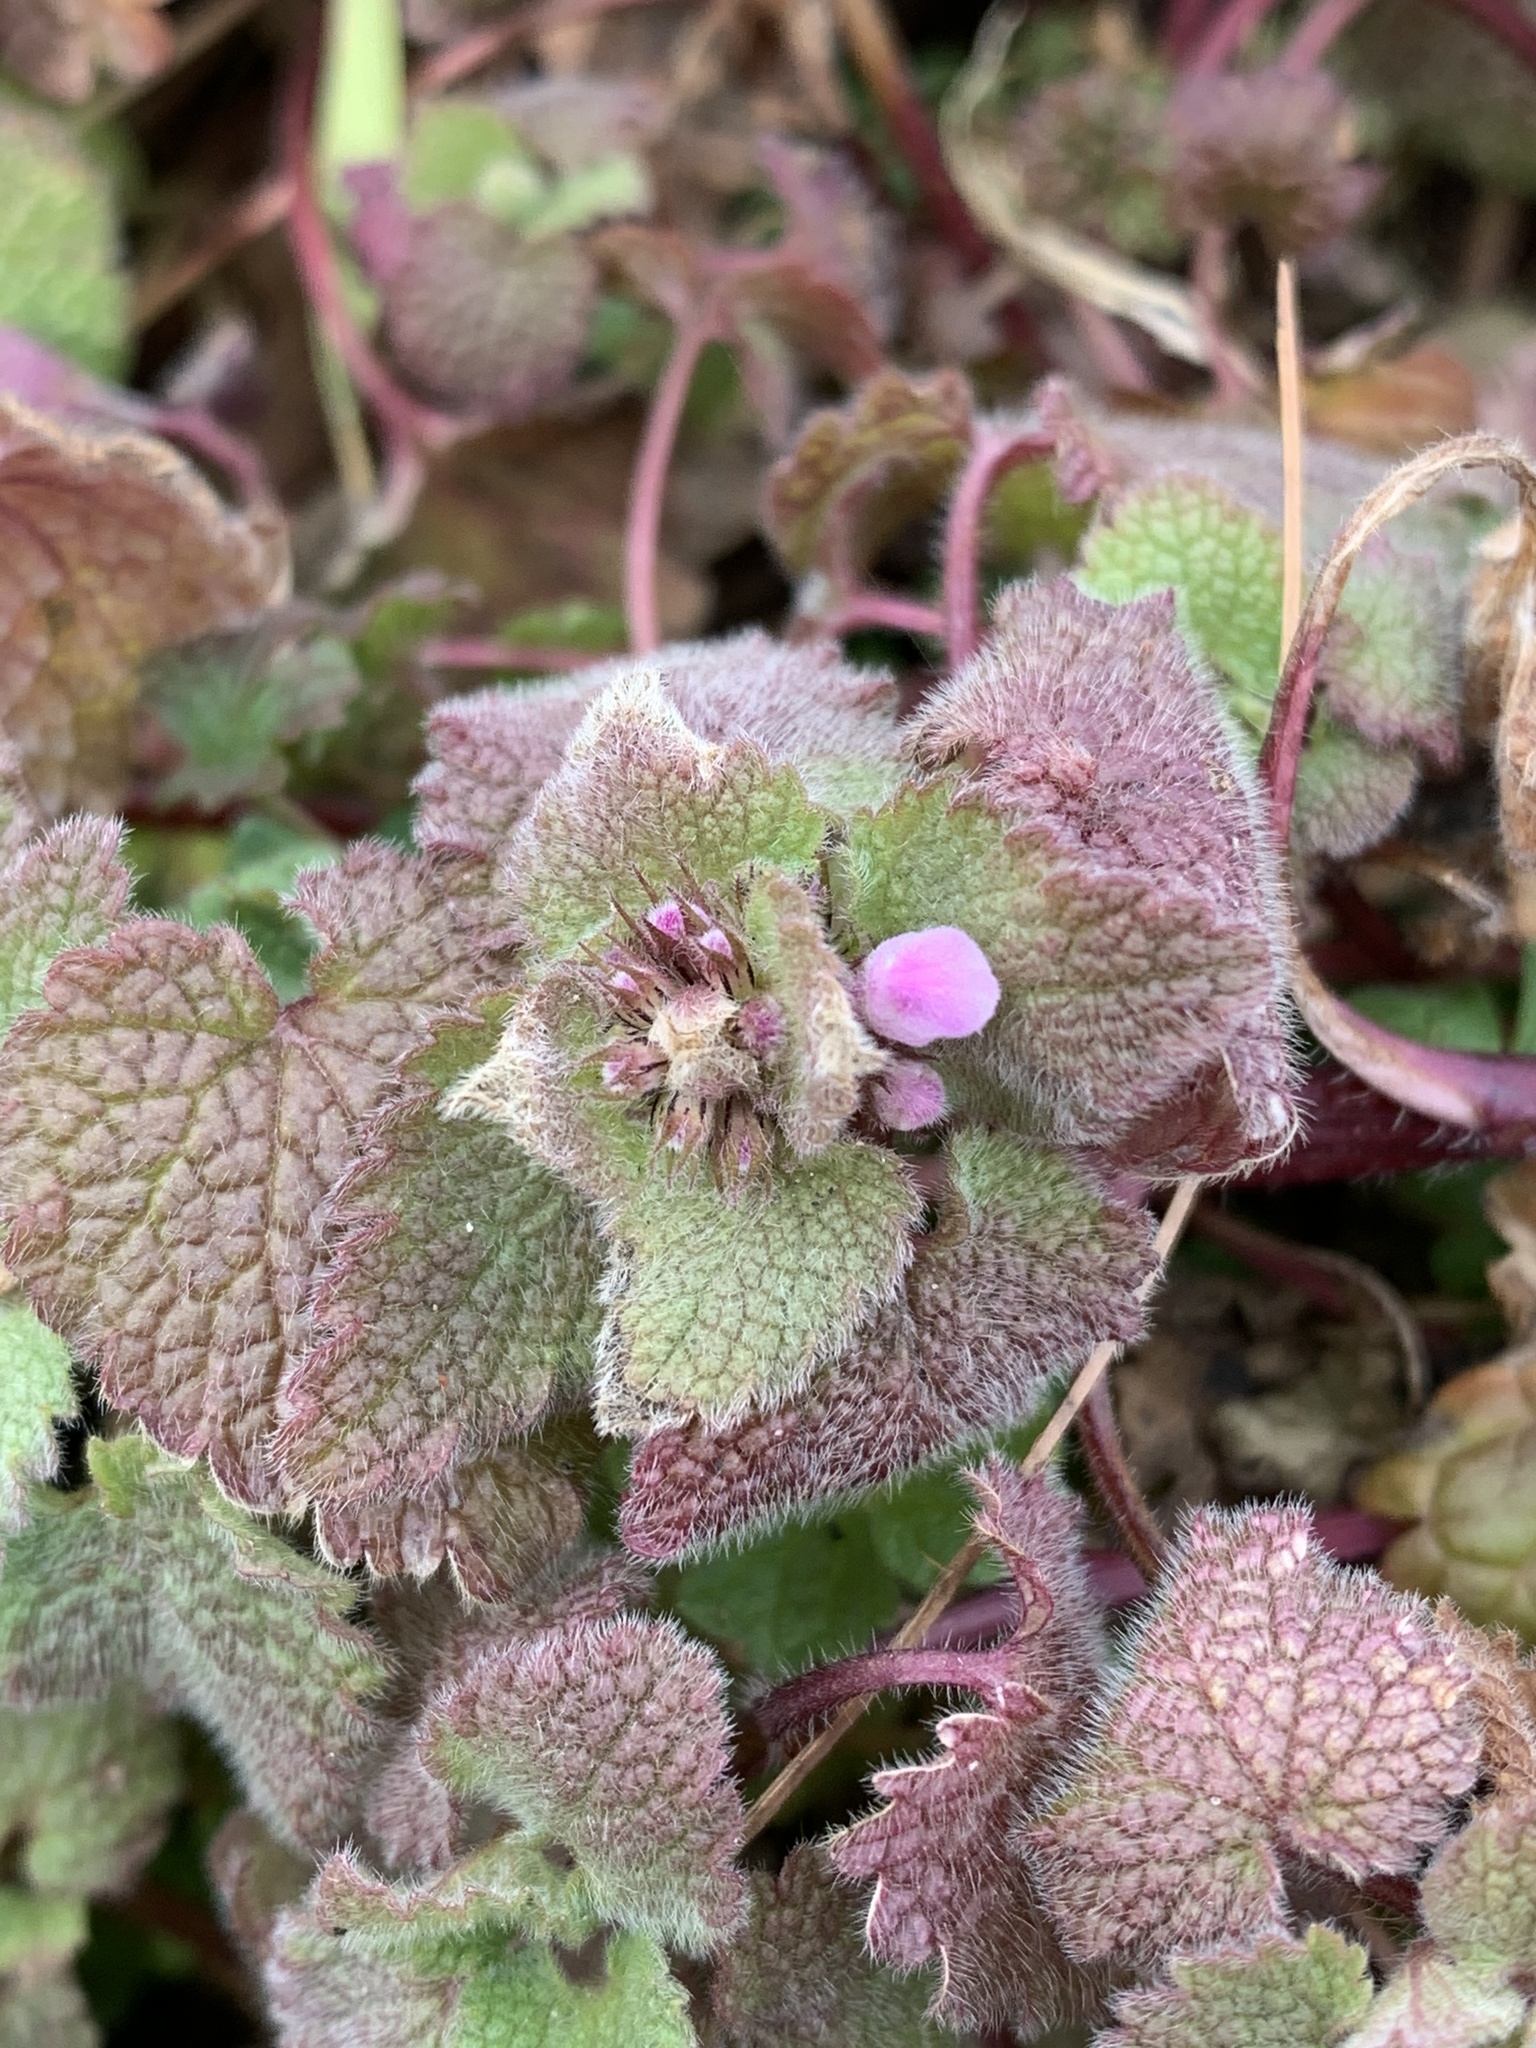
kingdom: Plantae
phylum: Tracheophyta
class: Magnoliopsida
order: Lamiales
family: Lamiaceae
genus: Lamium
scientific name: Lamium purpureum
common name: Red dead-nettle
